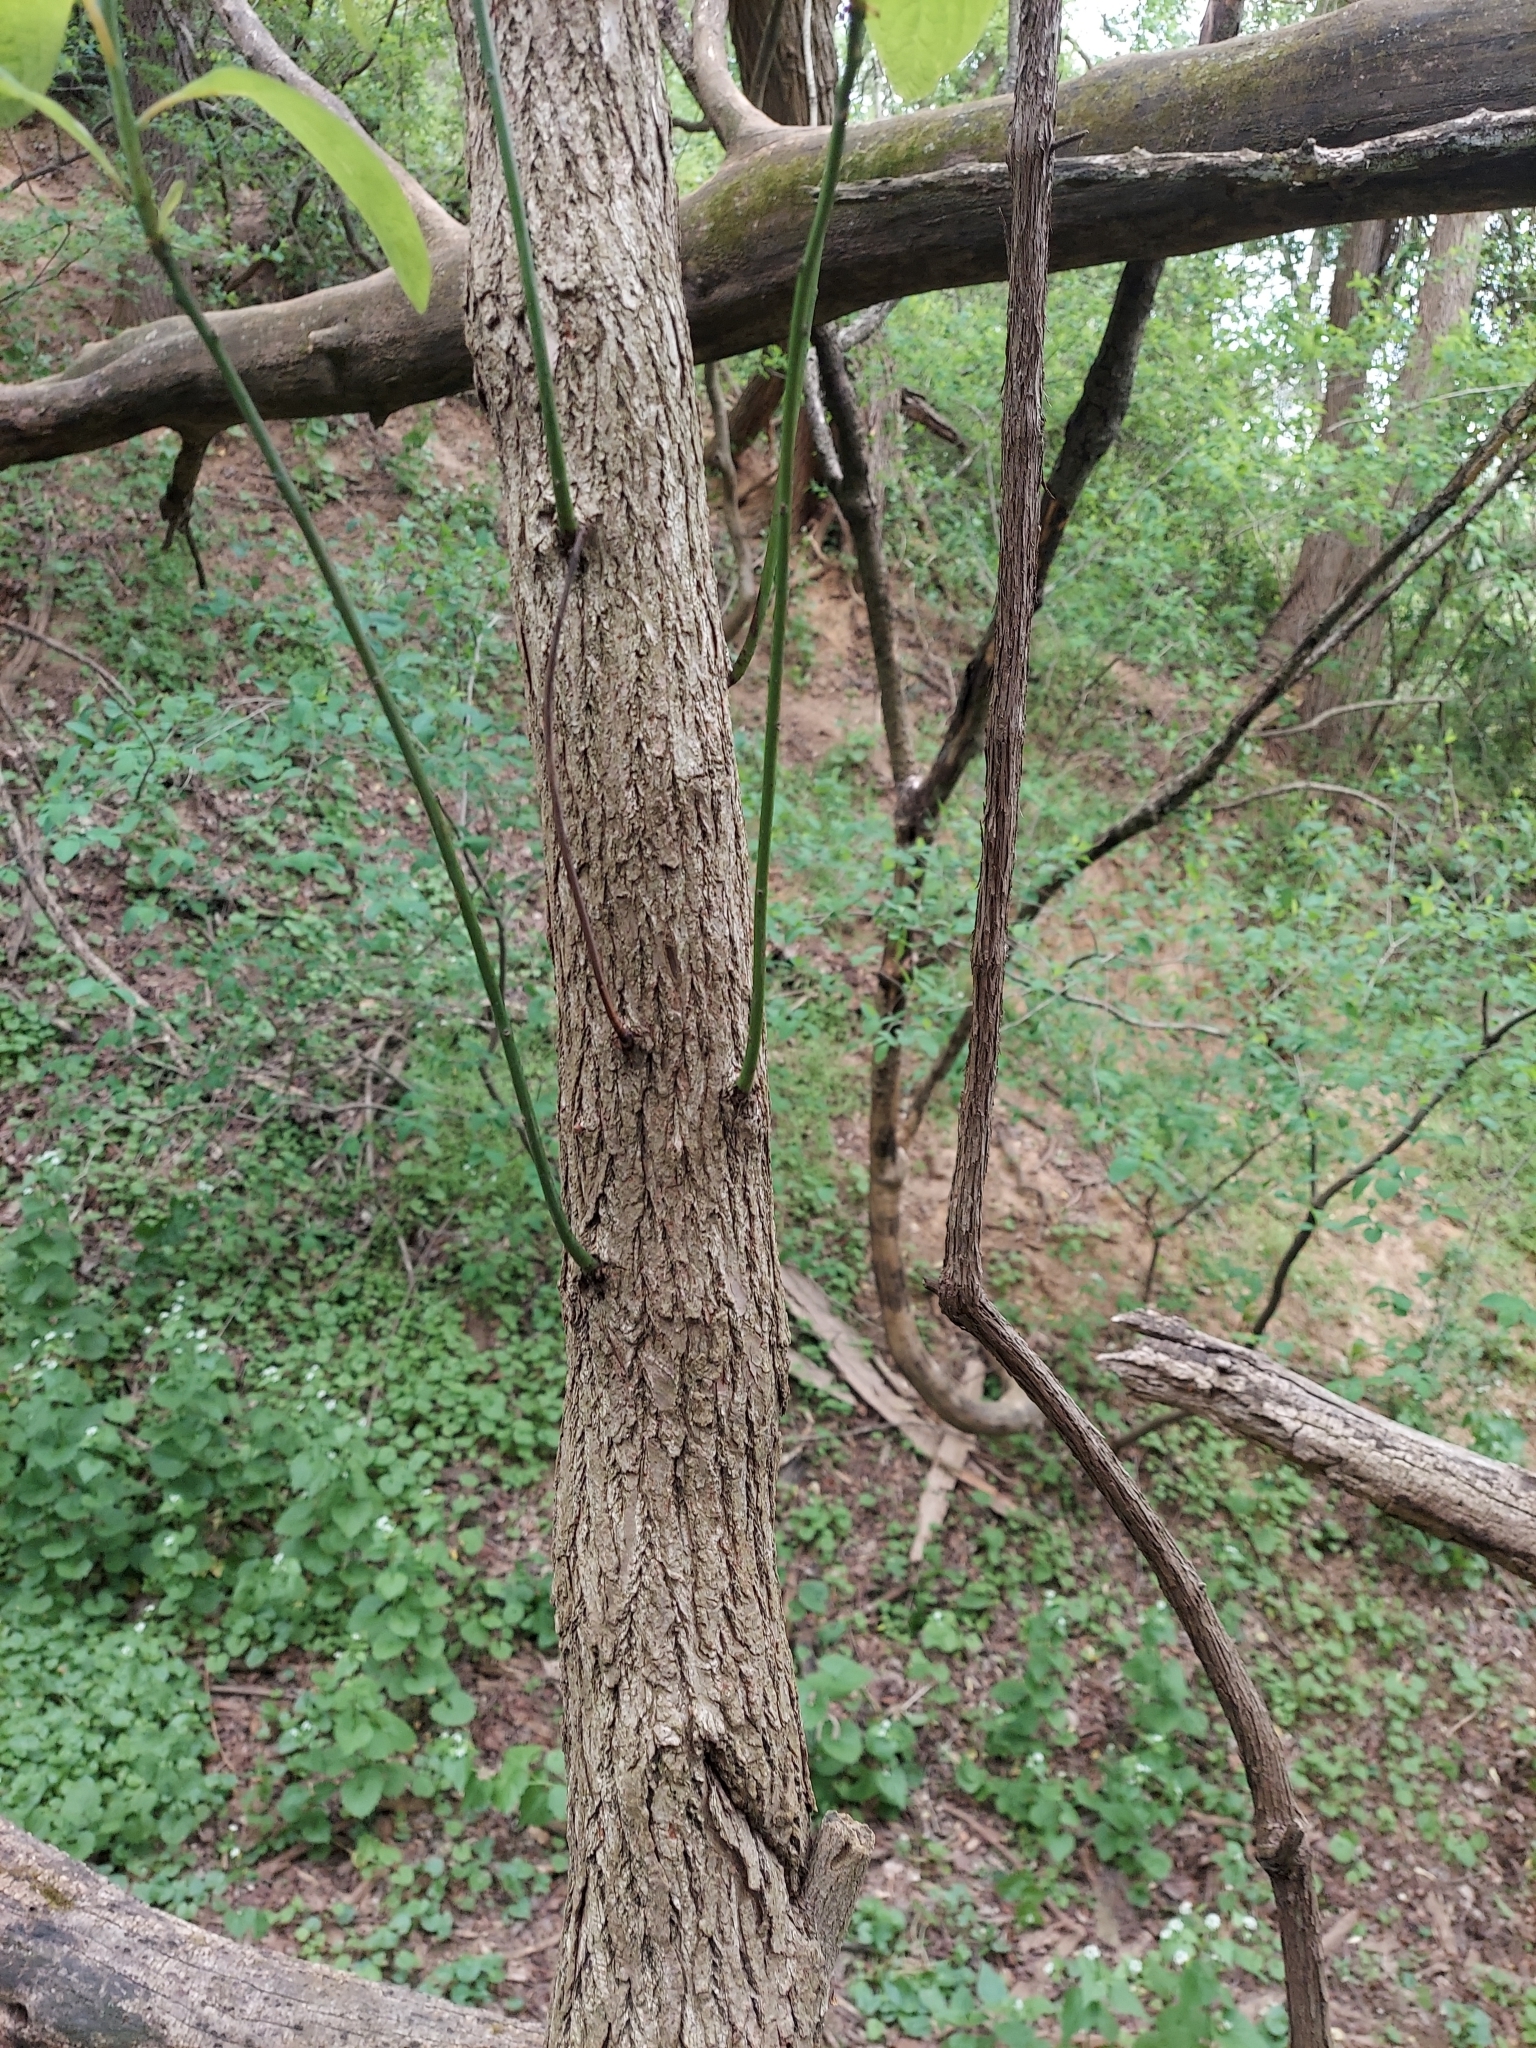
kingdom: Plantae
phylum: Tracheophyta
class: Magnoliopsida
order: Laurales
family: Lauraceae
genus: Sassafras
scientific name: Sassafras albidum
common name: Sassafras
